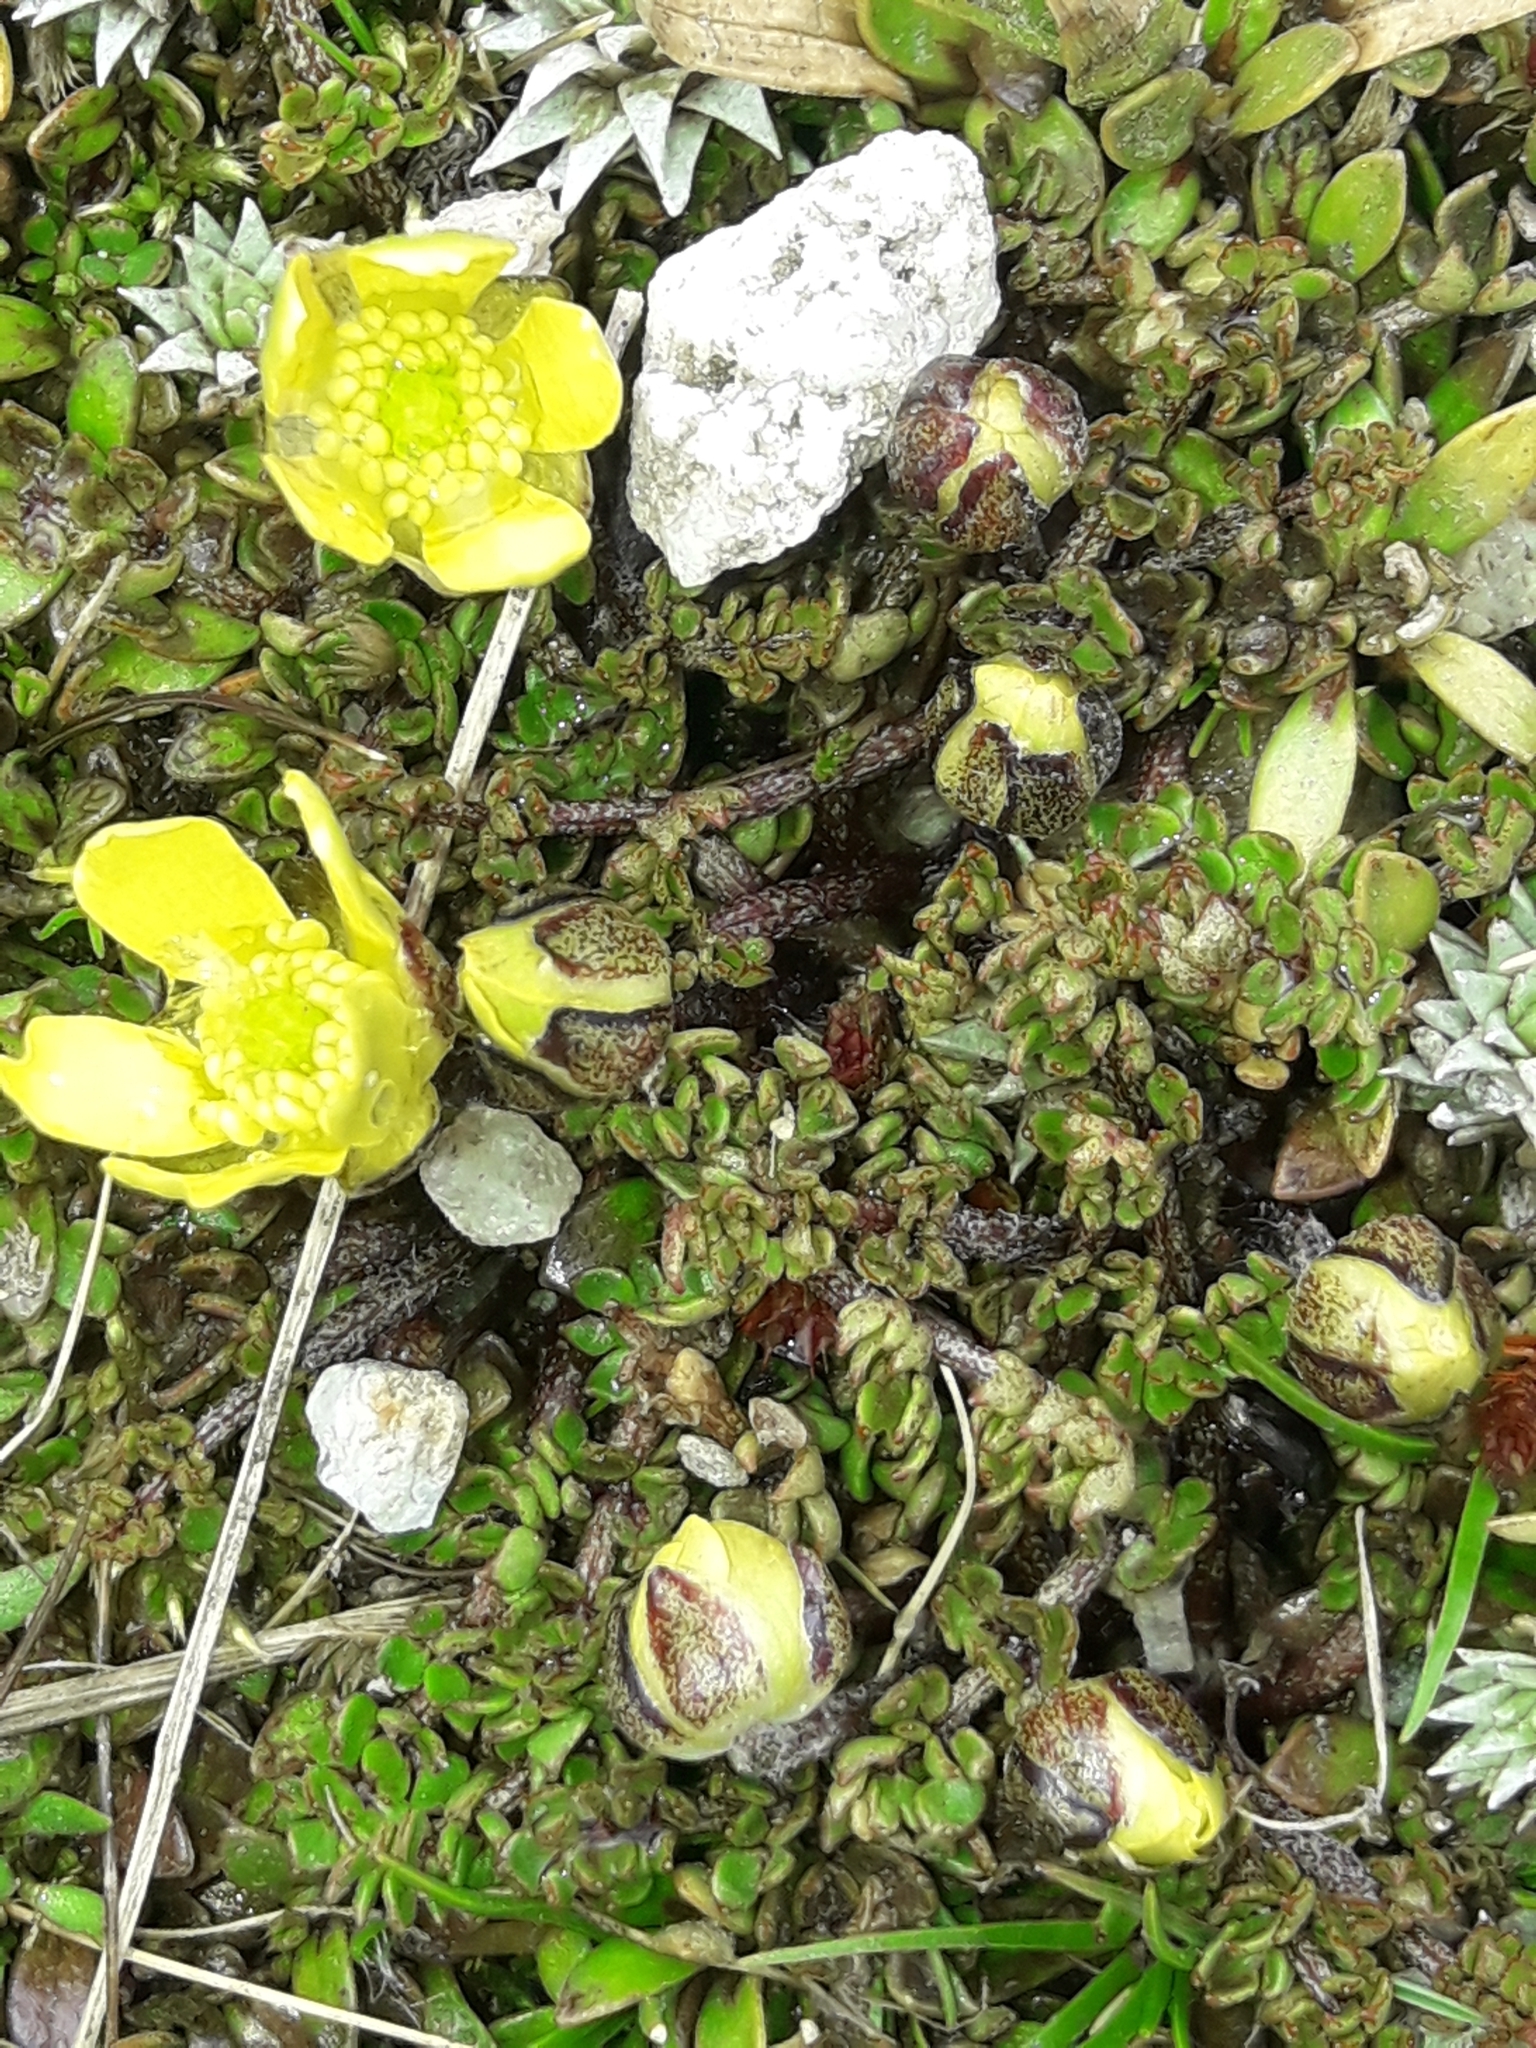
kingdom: Plantae
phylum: Tracheophyta
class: Magnoliopsida
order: Ranunculales
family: Ranunculaceae
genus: Ranunculus
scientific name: Ranunculus gracilipes
